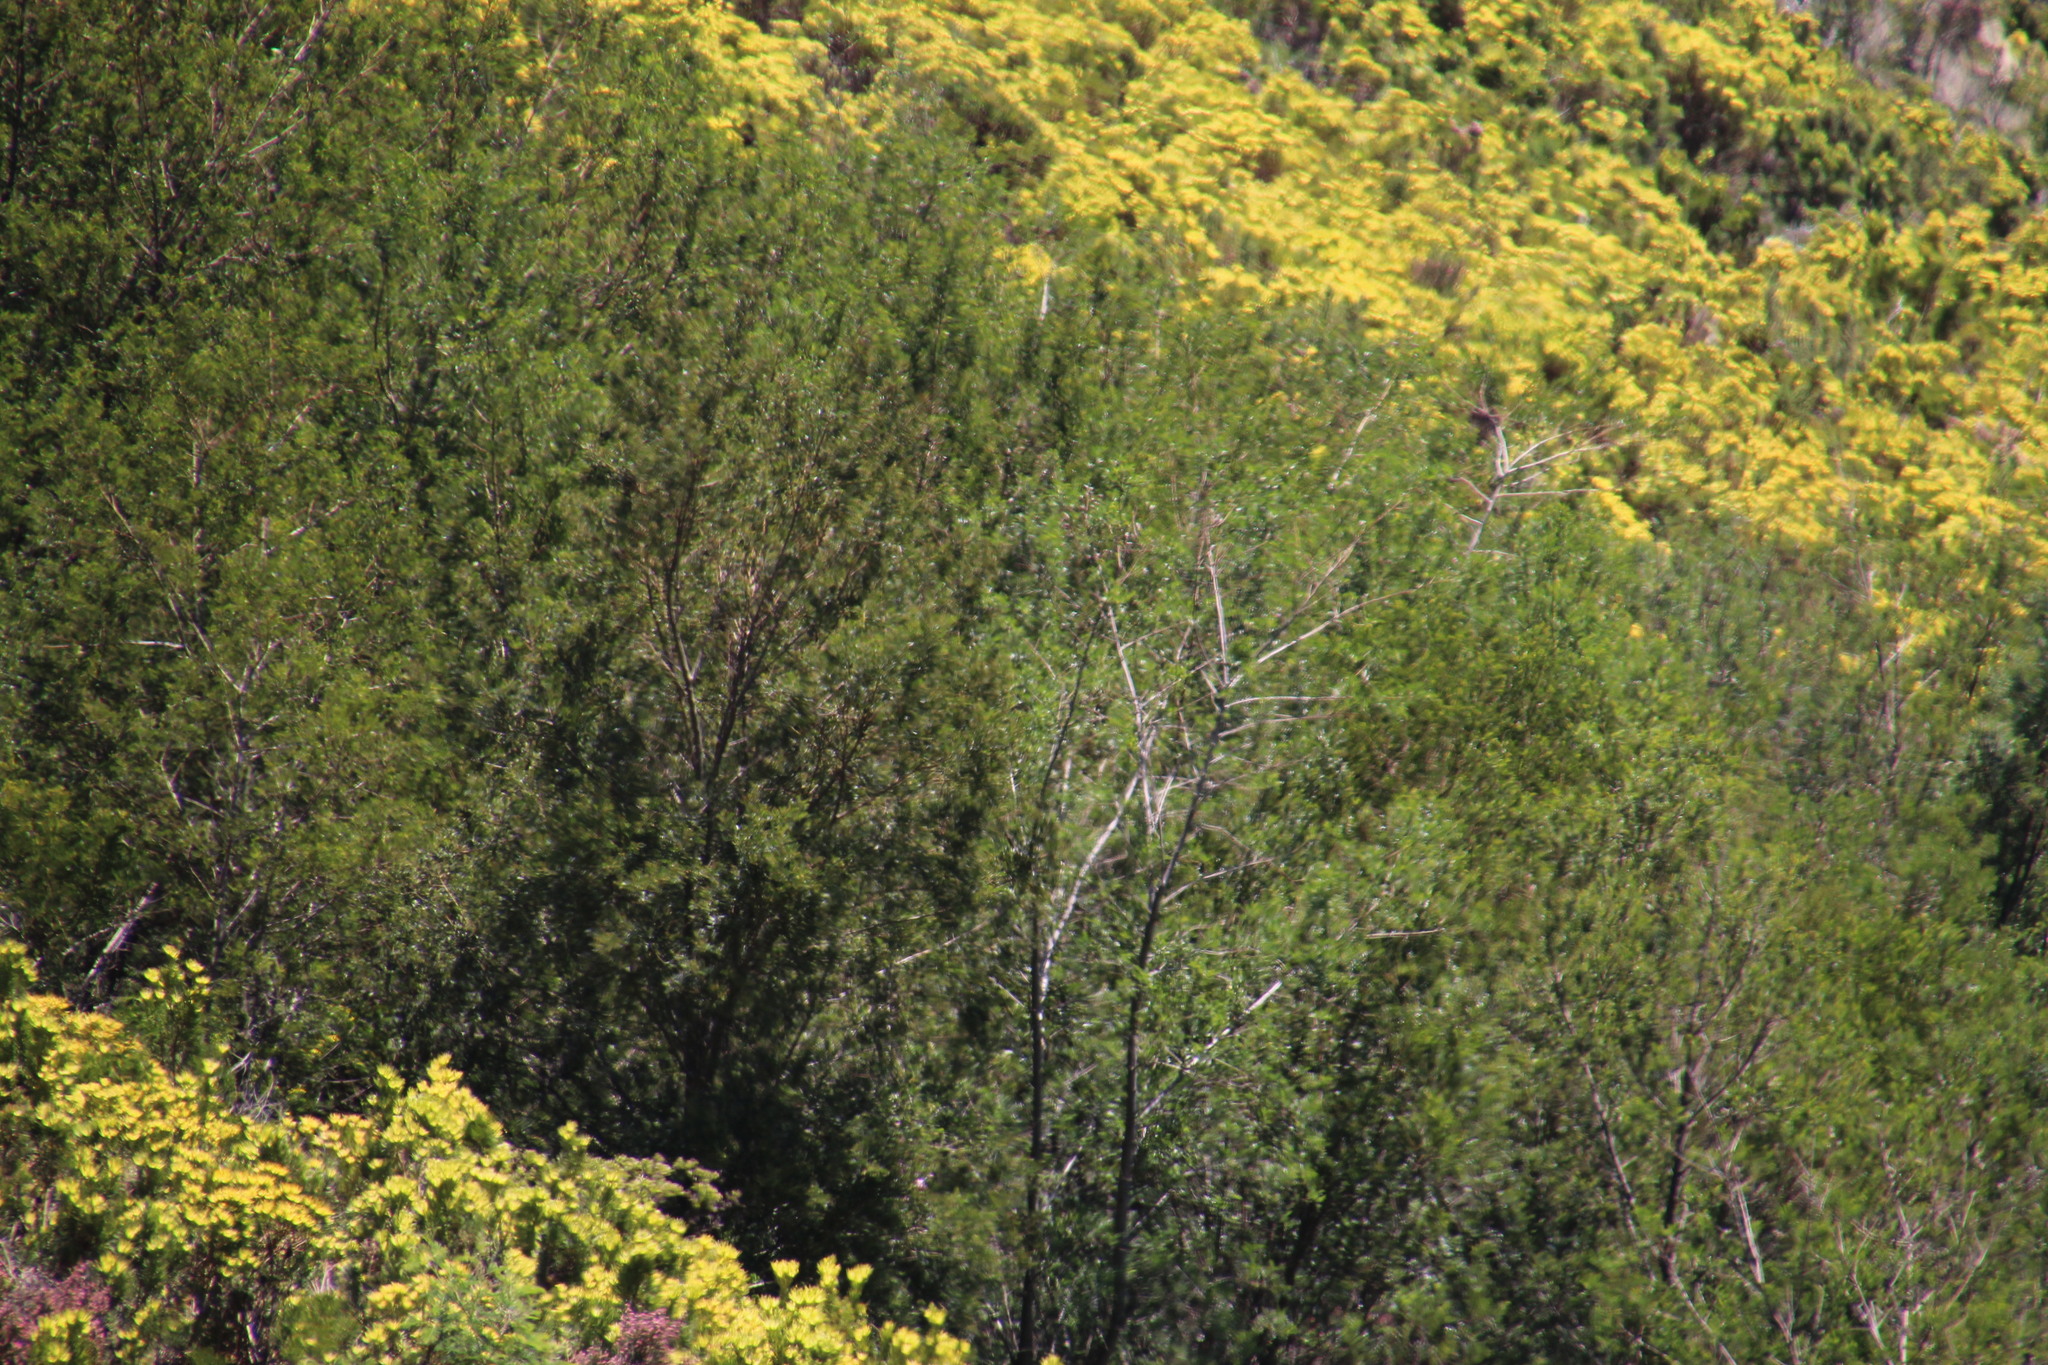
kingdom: Plantae
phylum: Tracheophyta
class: Magnoliopsida
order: Fabales
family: Fabaceae
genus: Acacia
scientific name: Acacia mearnsii
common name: Black wattle
